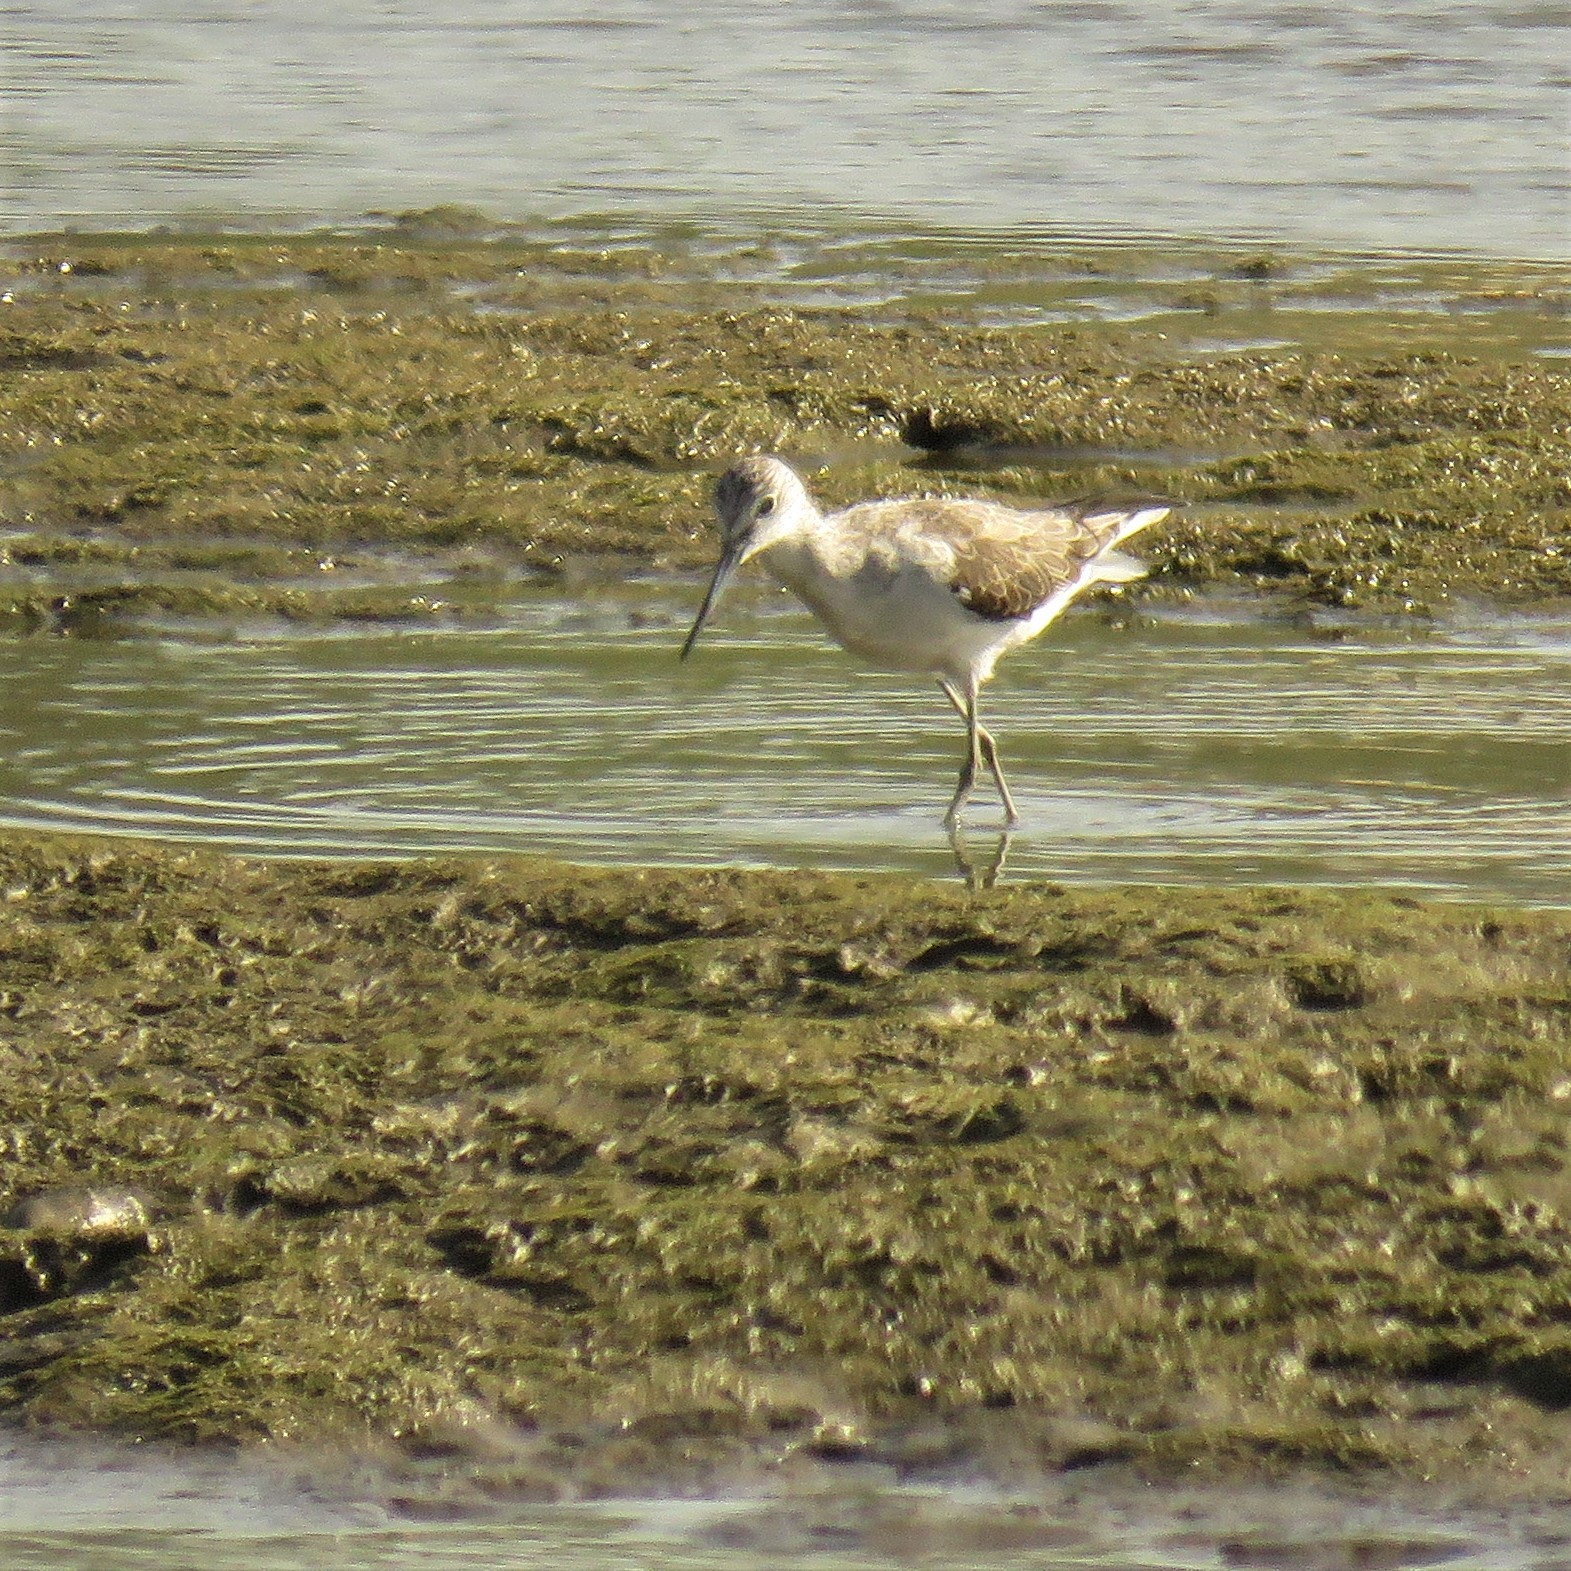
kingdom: Animalia
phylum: Chordata
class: Aves
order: Charadriiformes
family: Scolopacidae
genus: Tringa
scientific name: Tringa nebularia
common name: Common greenshank
